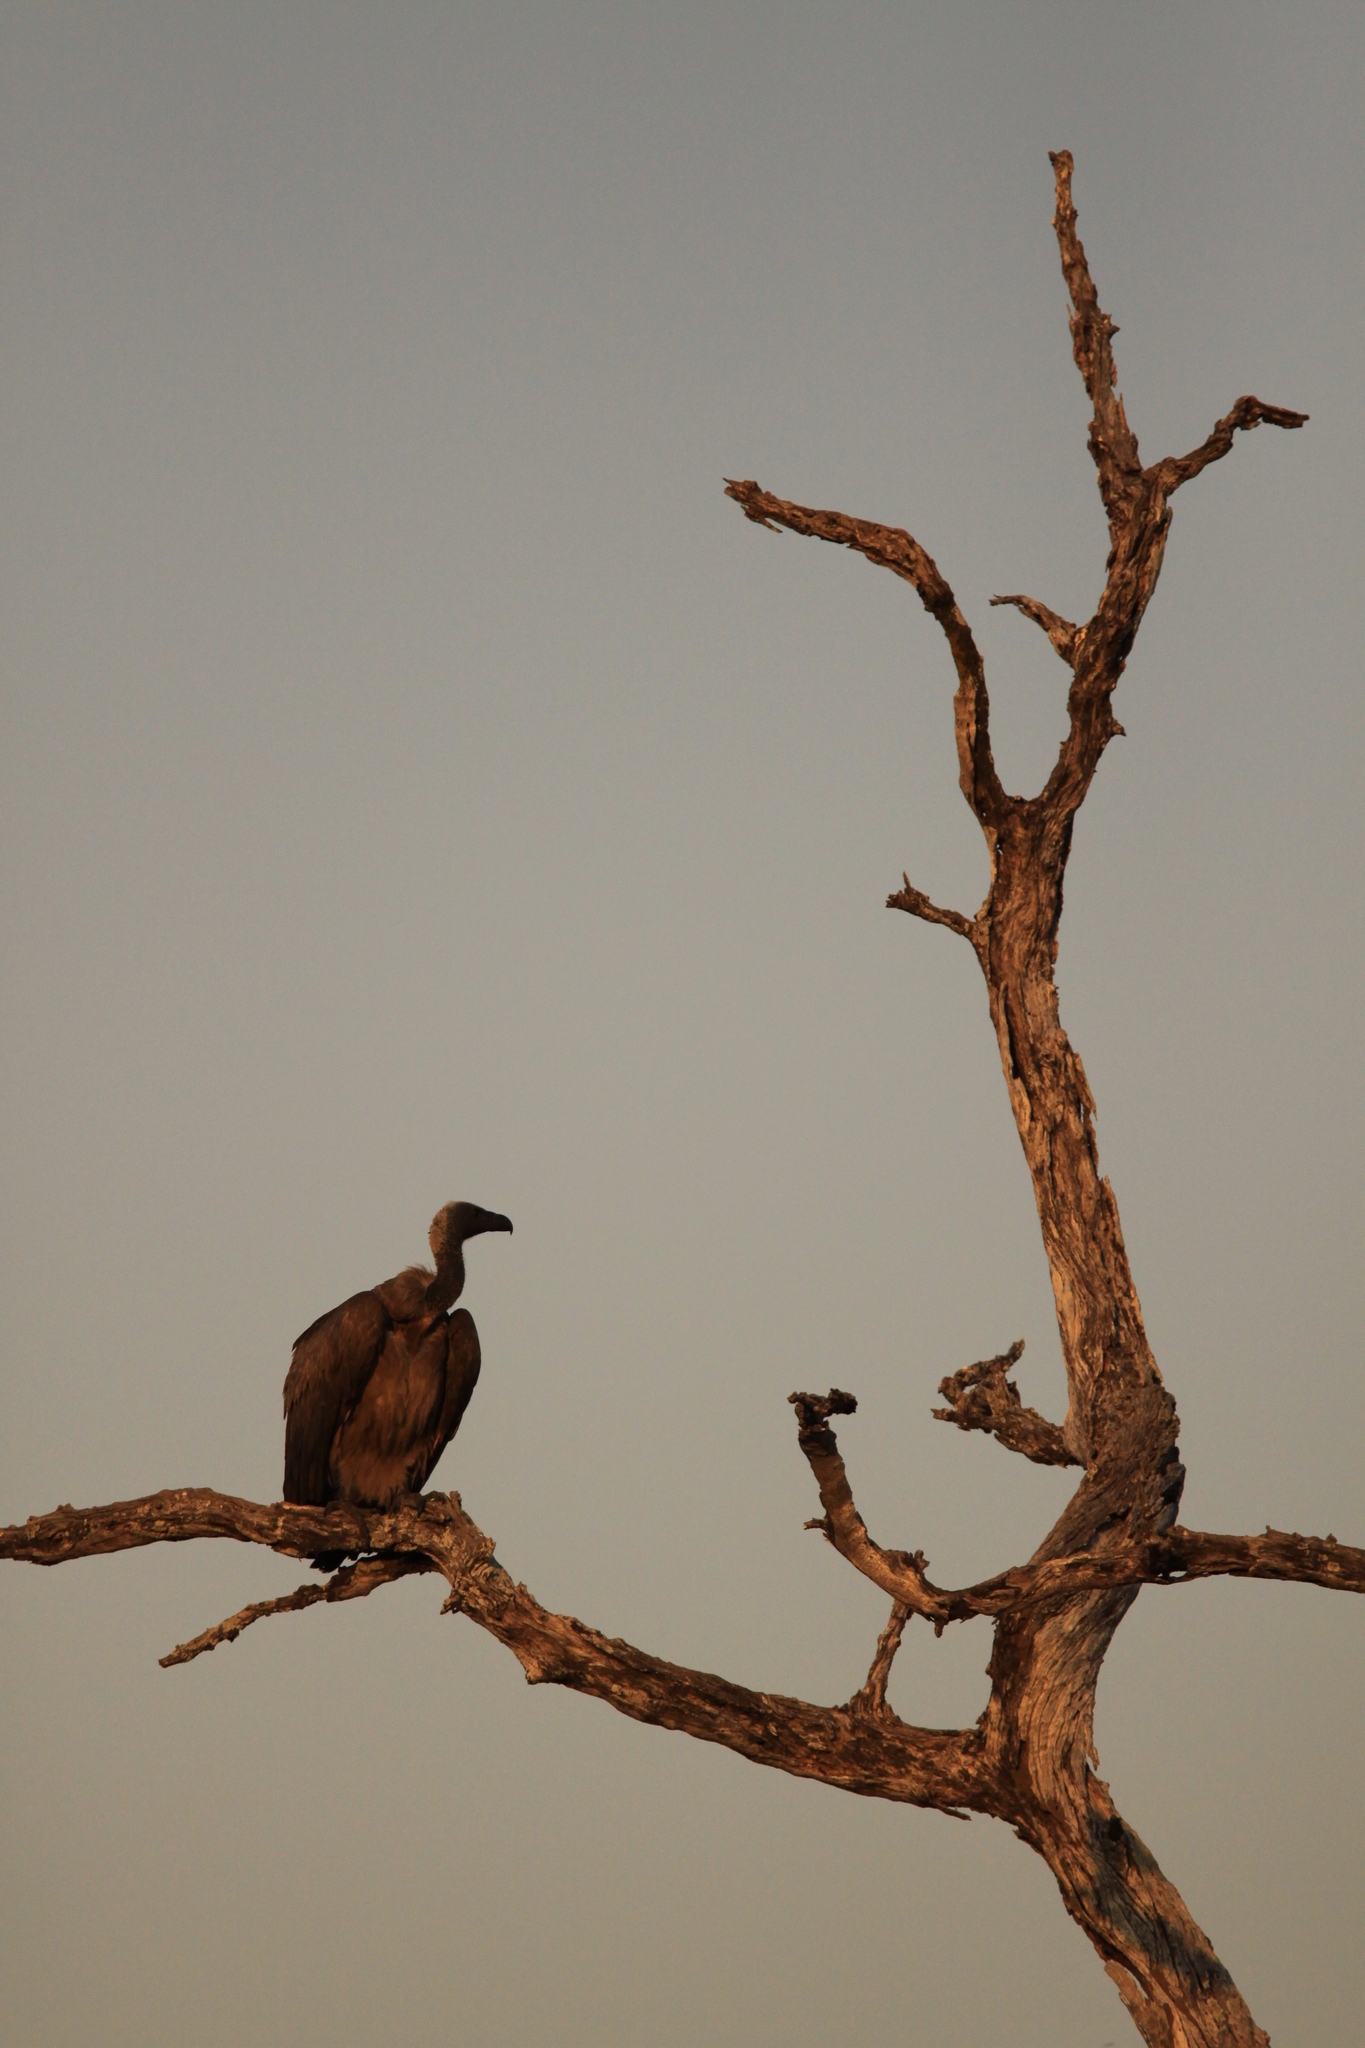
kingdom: Animalia
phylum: Chordata
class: Aves
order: Accipitriformes
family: Accipitridae
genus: Gyps
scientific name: Gyps africanus
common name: White-backed vulture
